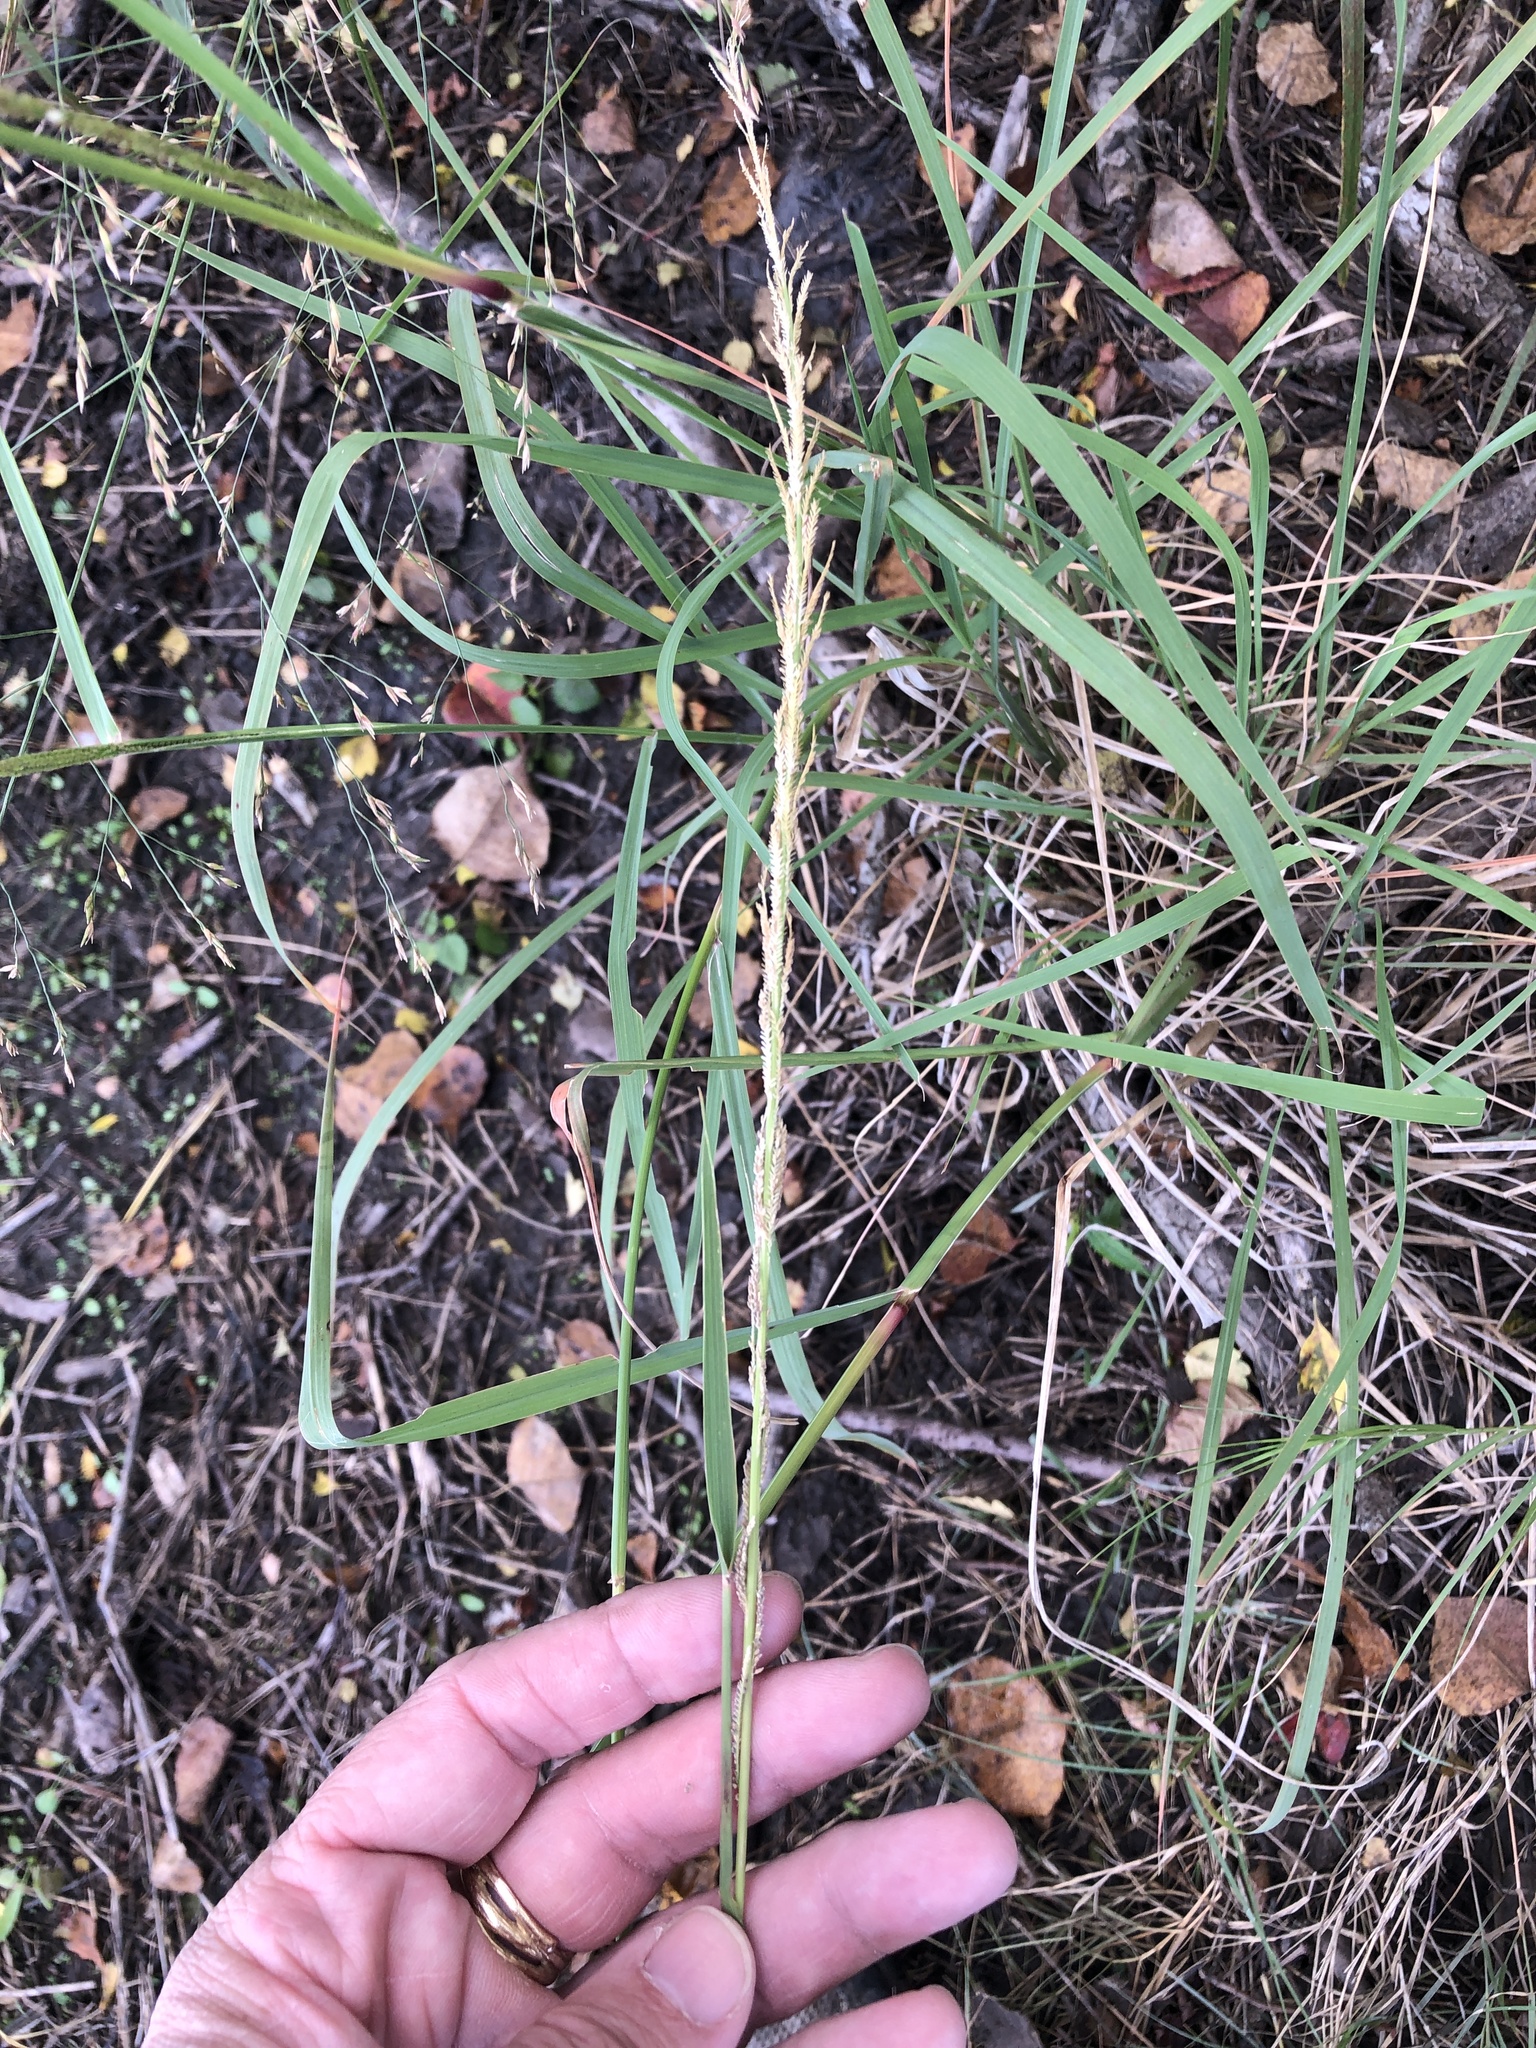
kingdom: Plantae
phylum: Tracheophyta
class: Liliopsida
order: Poales
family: Poaceae
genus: Leptochloa
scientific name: Leptochloa nealleyi
